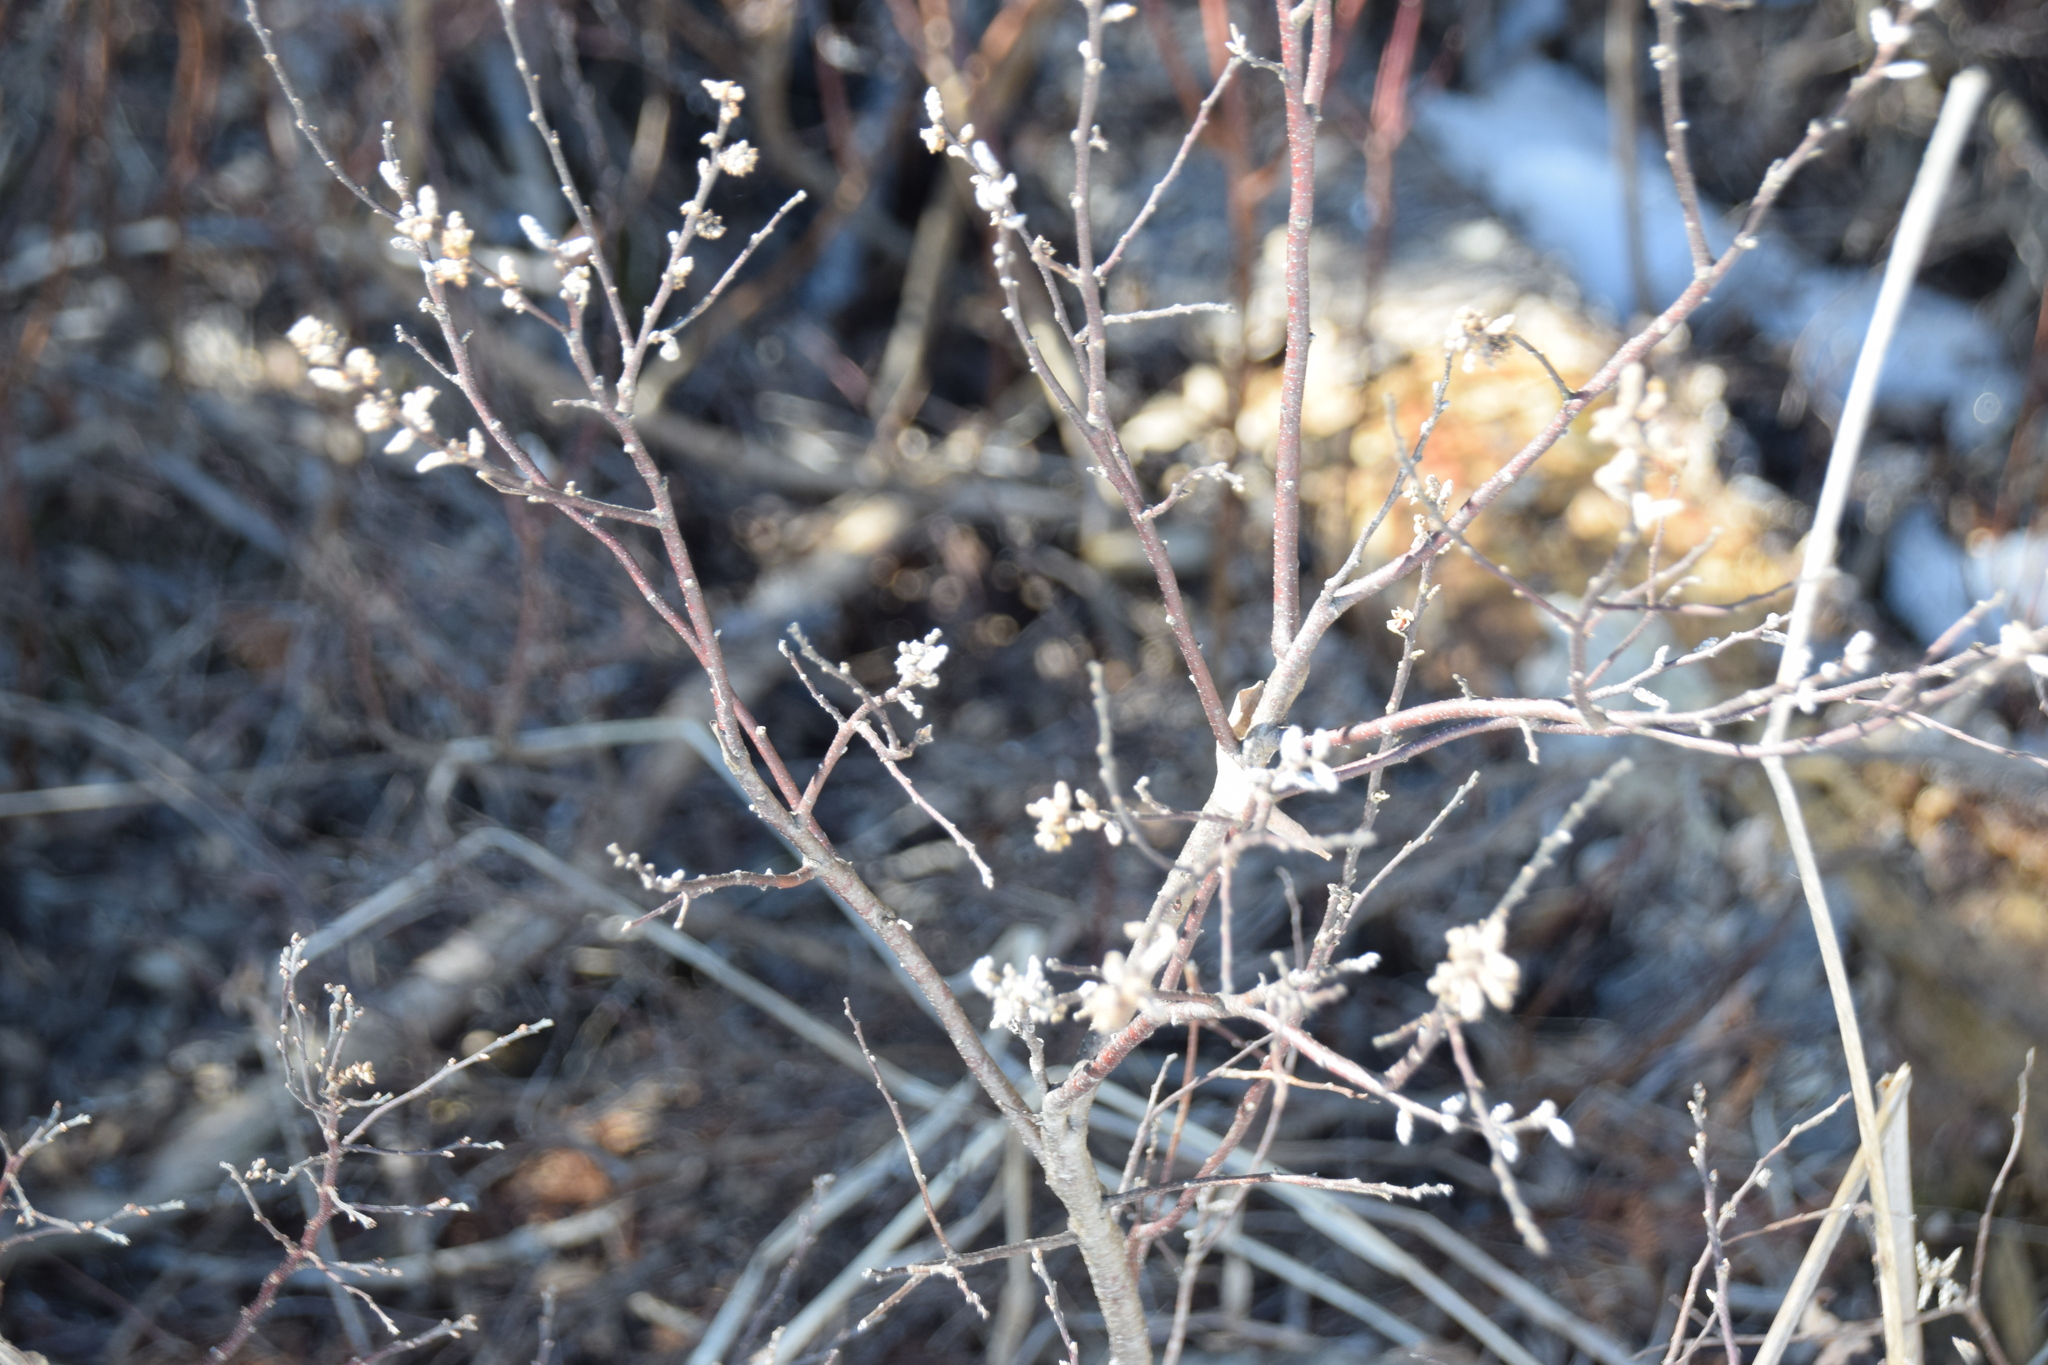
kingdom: Plantae
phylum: Tracheophyta
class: Magnoliopsida
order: Fagales
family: Myricaceae
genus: Myrica
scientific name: Myrica gale
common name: Sweet gale
